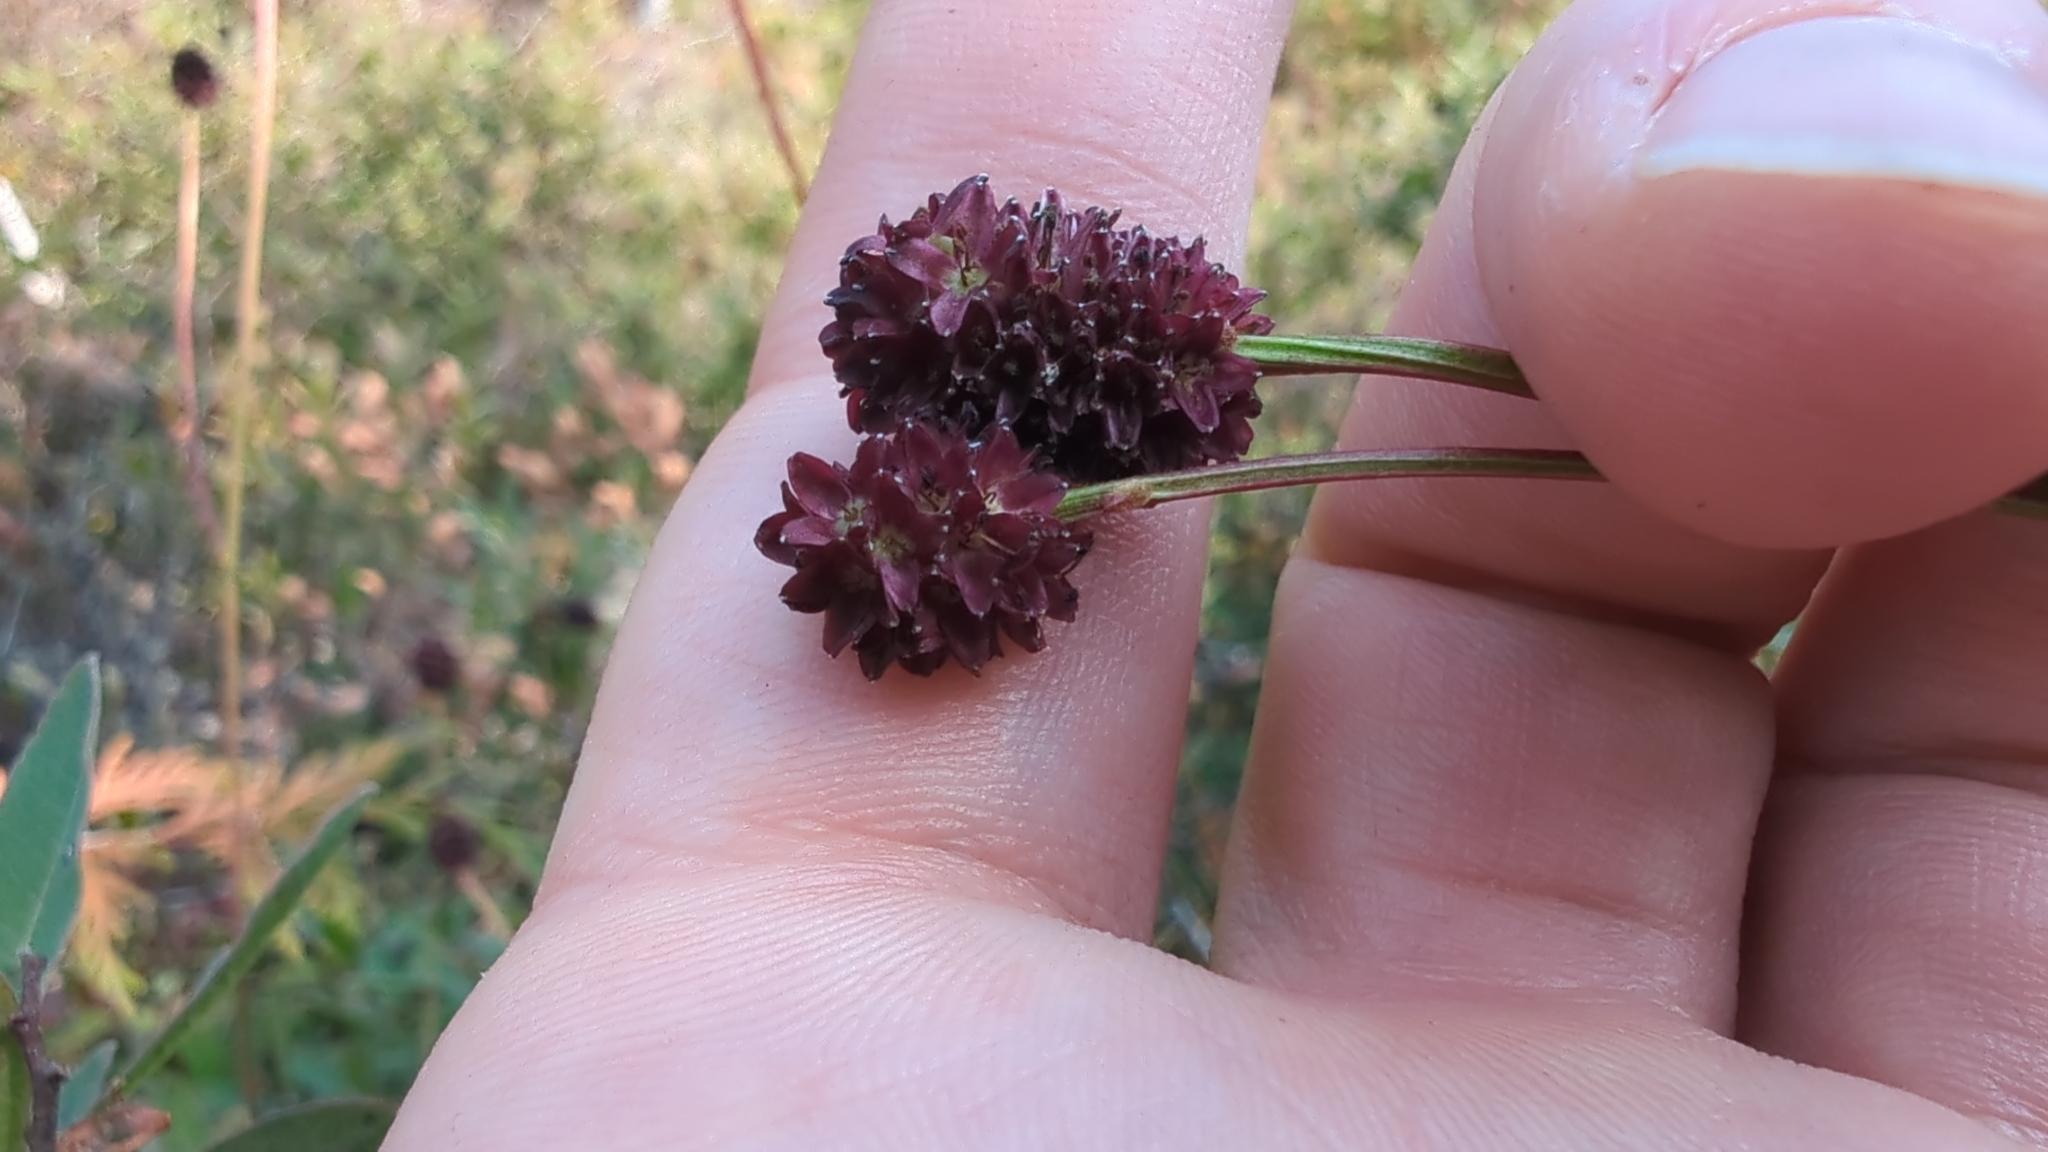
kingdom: Plantae
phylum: Tracheophyta
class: Magnoliopsida
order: Rosales
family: Rosaceae
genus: Sanguisorba
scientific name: Sanguisorba officinalis
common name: Great burnet
